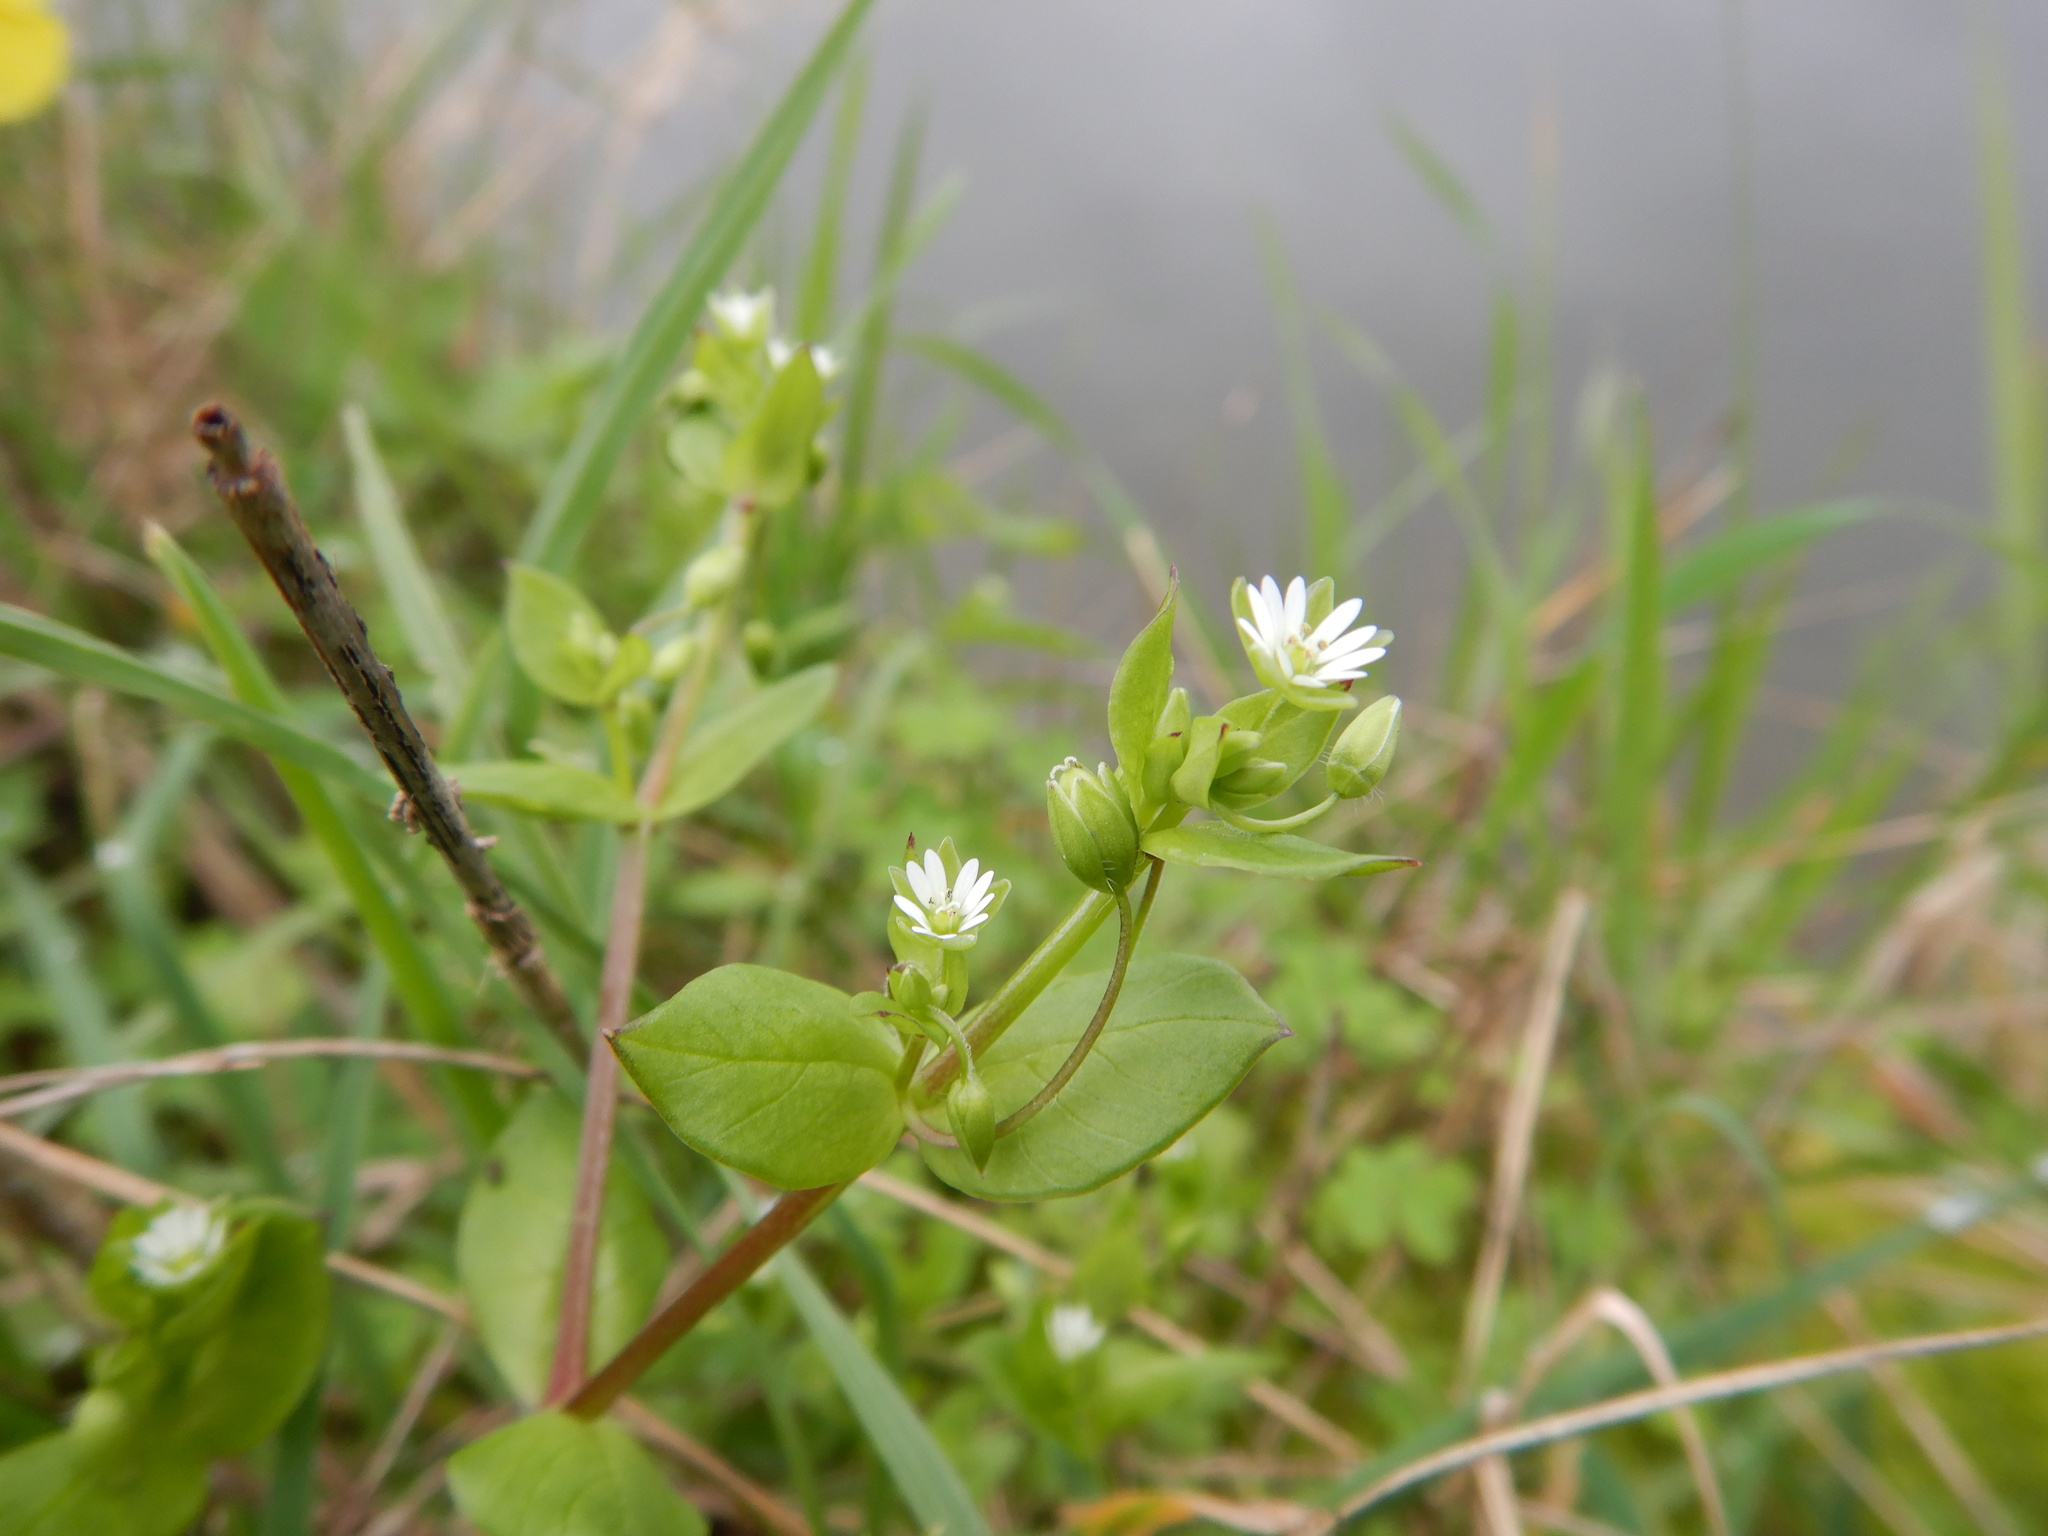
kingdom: Plantae
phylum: Tracheophyta
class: Magnoliopsida
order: Caryophyllales
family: Caryophyllaceae
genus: Stellaria
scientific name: Stellaria media
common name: Common chickweed
